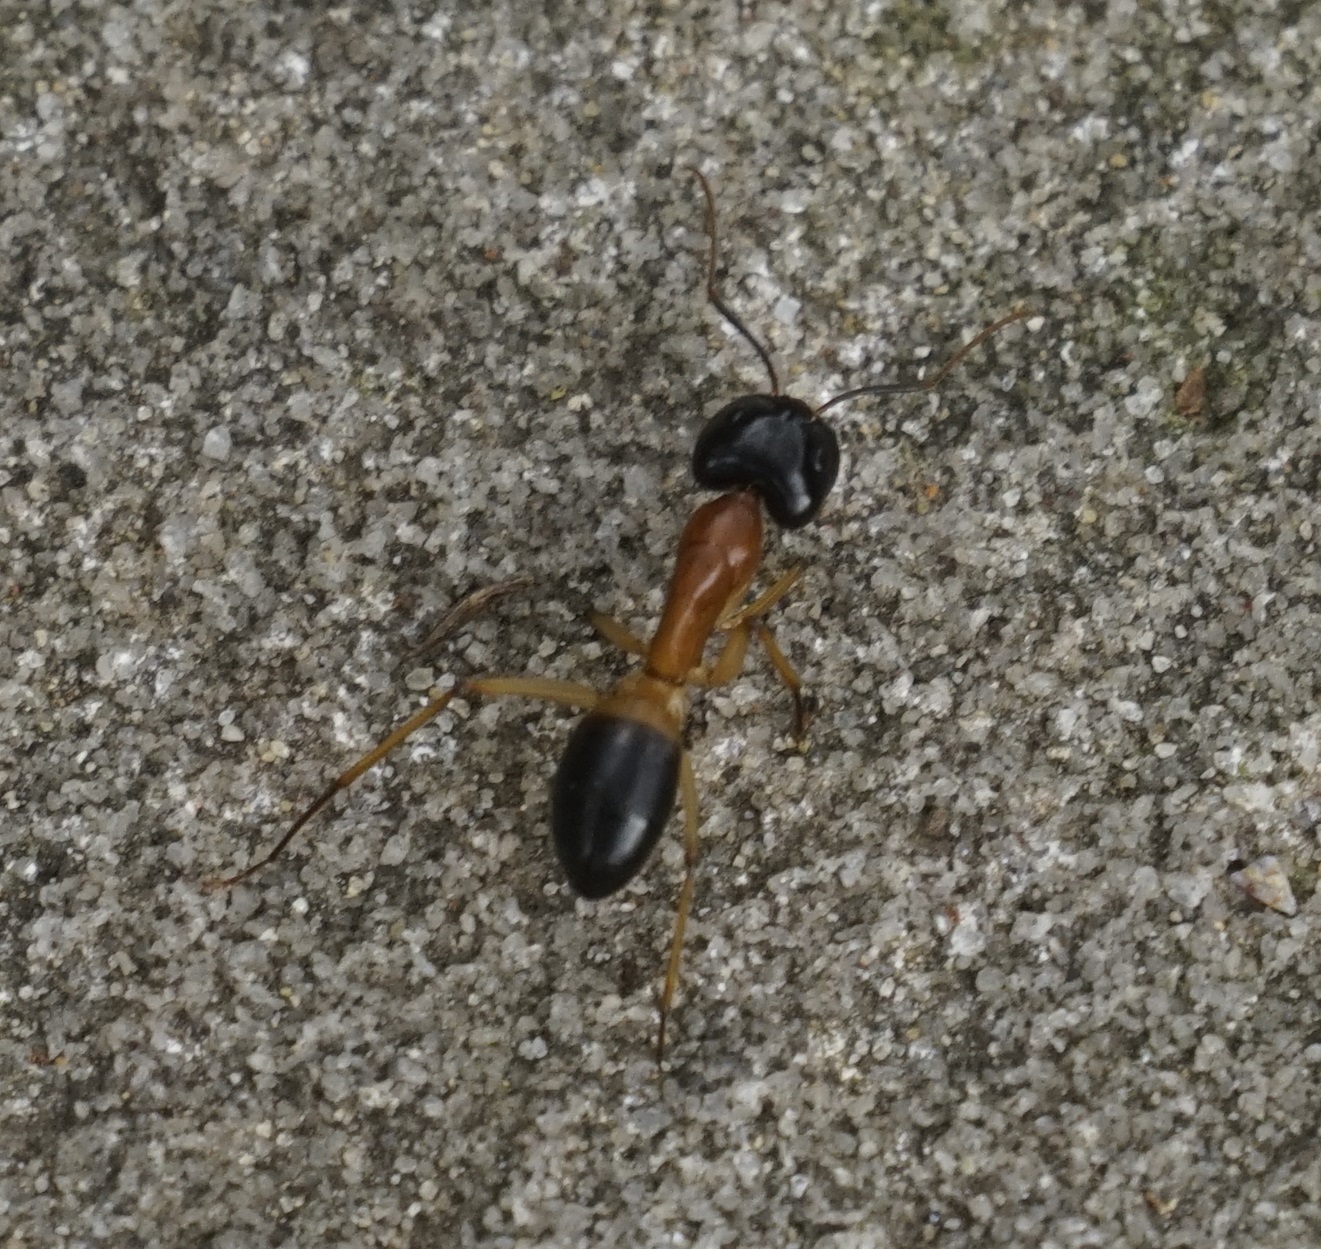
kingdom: Animalia
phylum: Arthropoda
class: Insecta
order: Hymenoptera
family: Formicidae
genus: Camponotus
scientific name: Camponotus consobrinus
